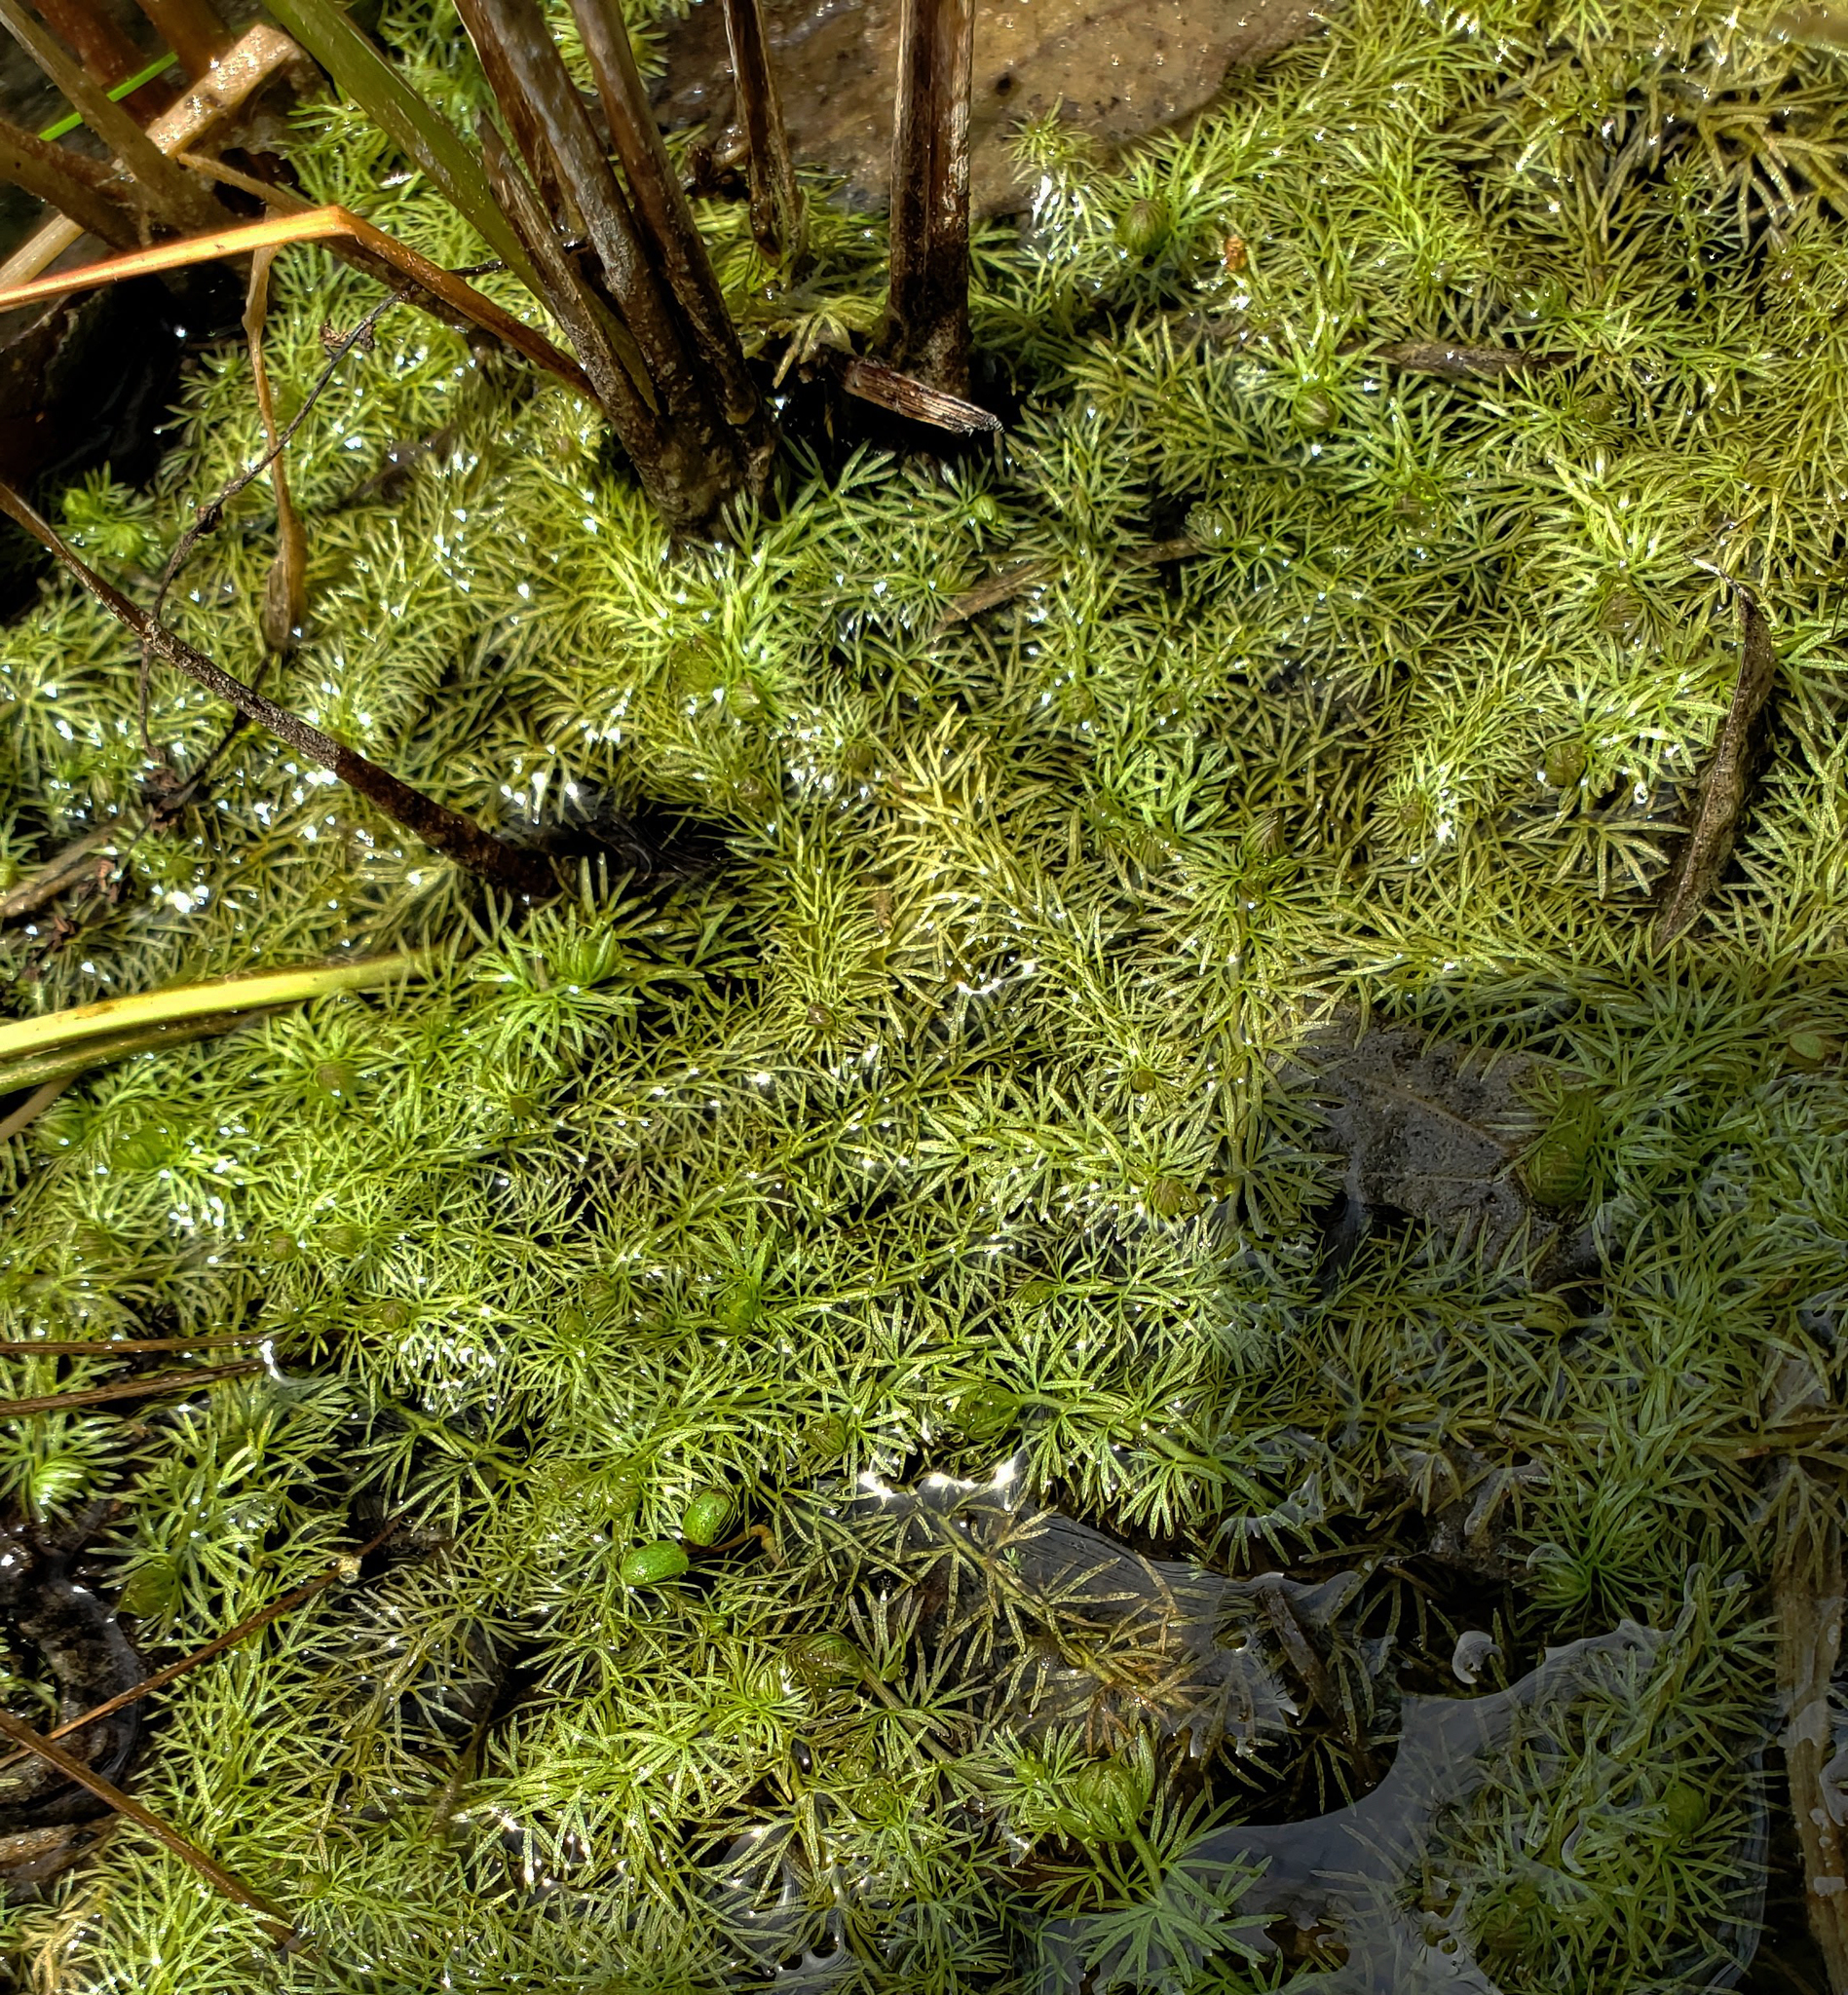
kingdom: Plantae
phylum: Tracheophyta
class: Magnoliopsida
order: Lamiales
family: Lentibulariaceae
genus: Utricularia
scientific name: Utricularia intermedia
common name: Intermediate bladderwort
